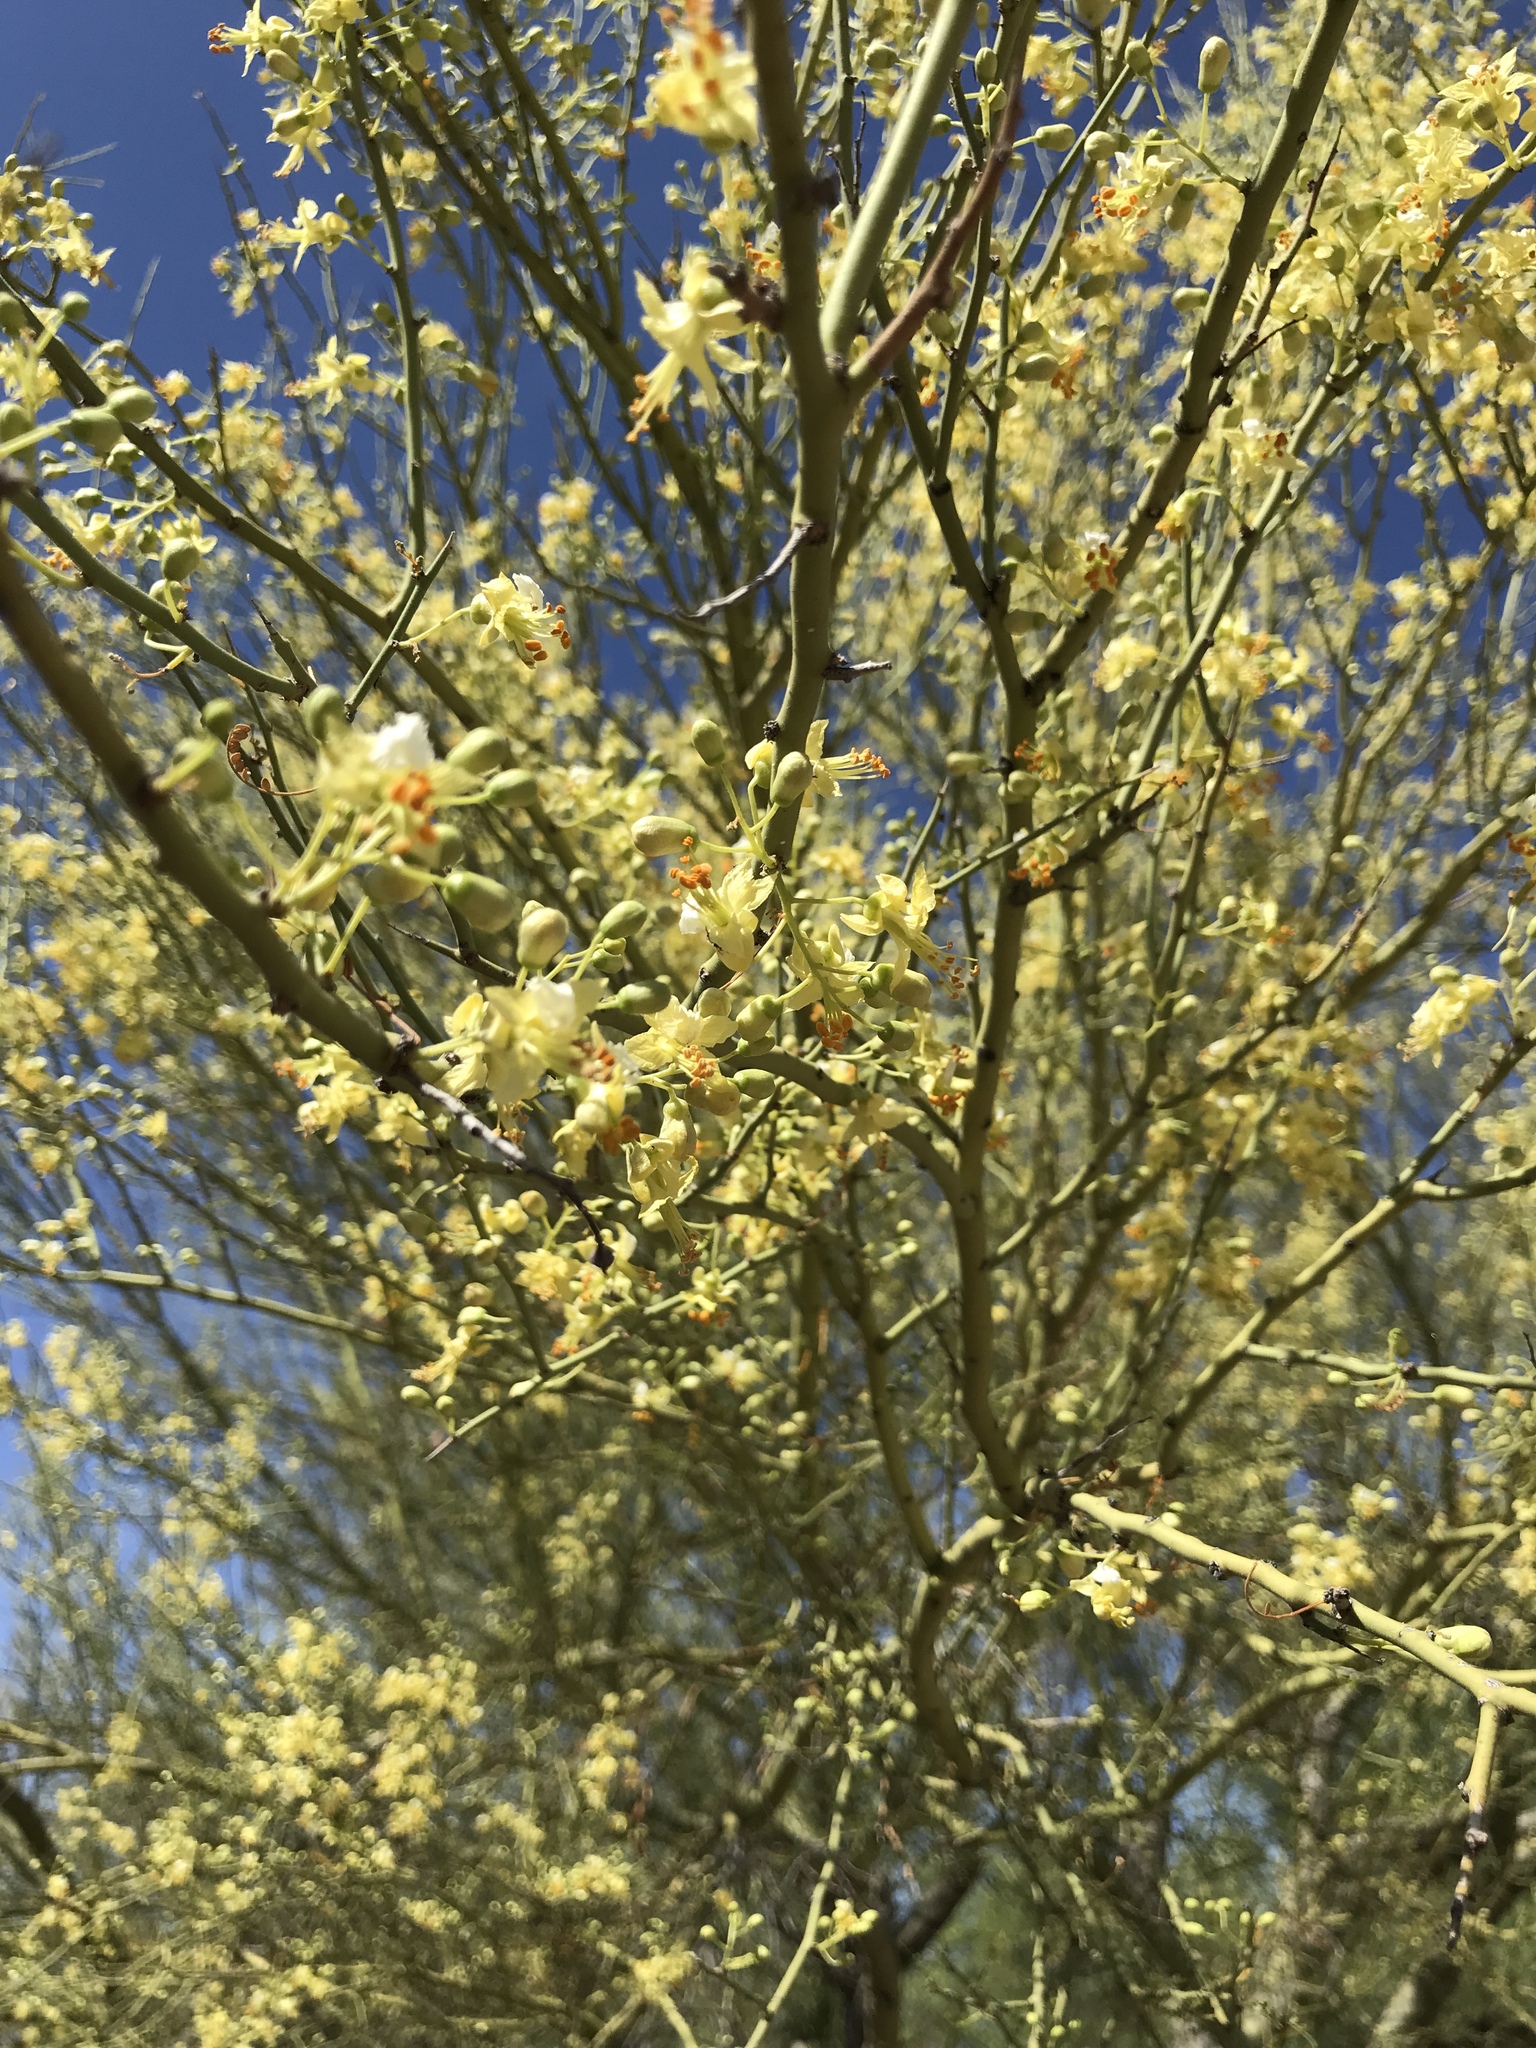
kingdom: Plantae
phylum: Tracheophyta
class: Magnoliopsida
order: Fabales
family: Fabaceae
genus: Parkinsonia
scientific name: Parkinsonia microphylla
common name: Yellow paloverde
